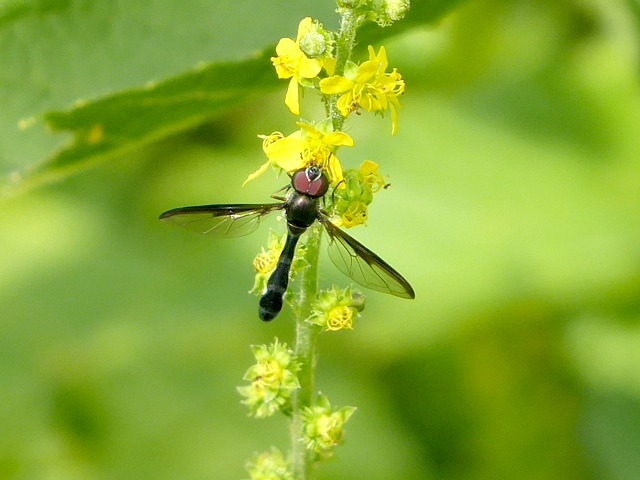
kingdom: Animalia
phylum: Arthropoda
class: Insecta
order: Diptera
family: Syrphidae
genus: Ocyptamus
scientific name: Ocyptamus costatus
